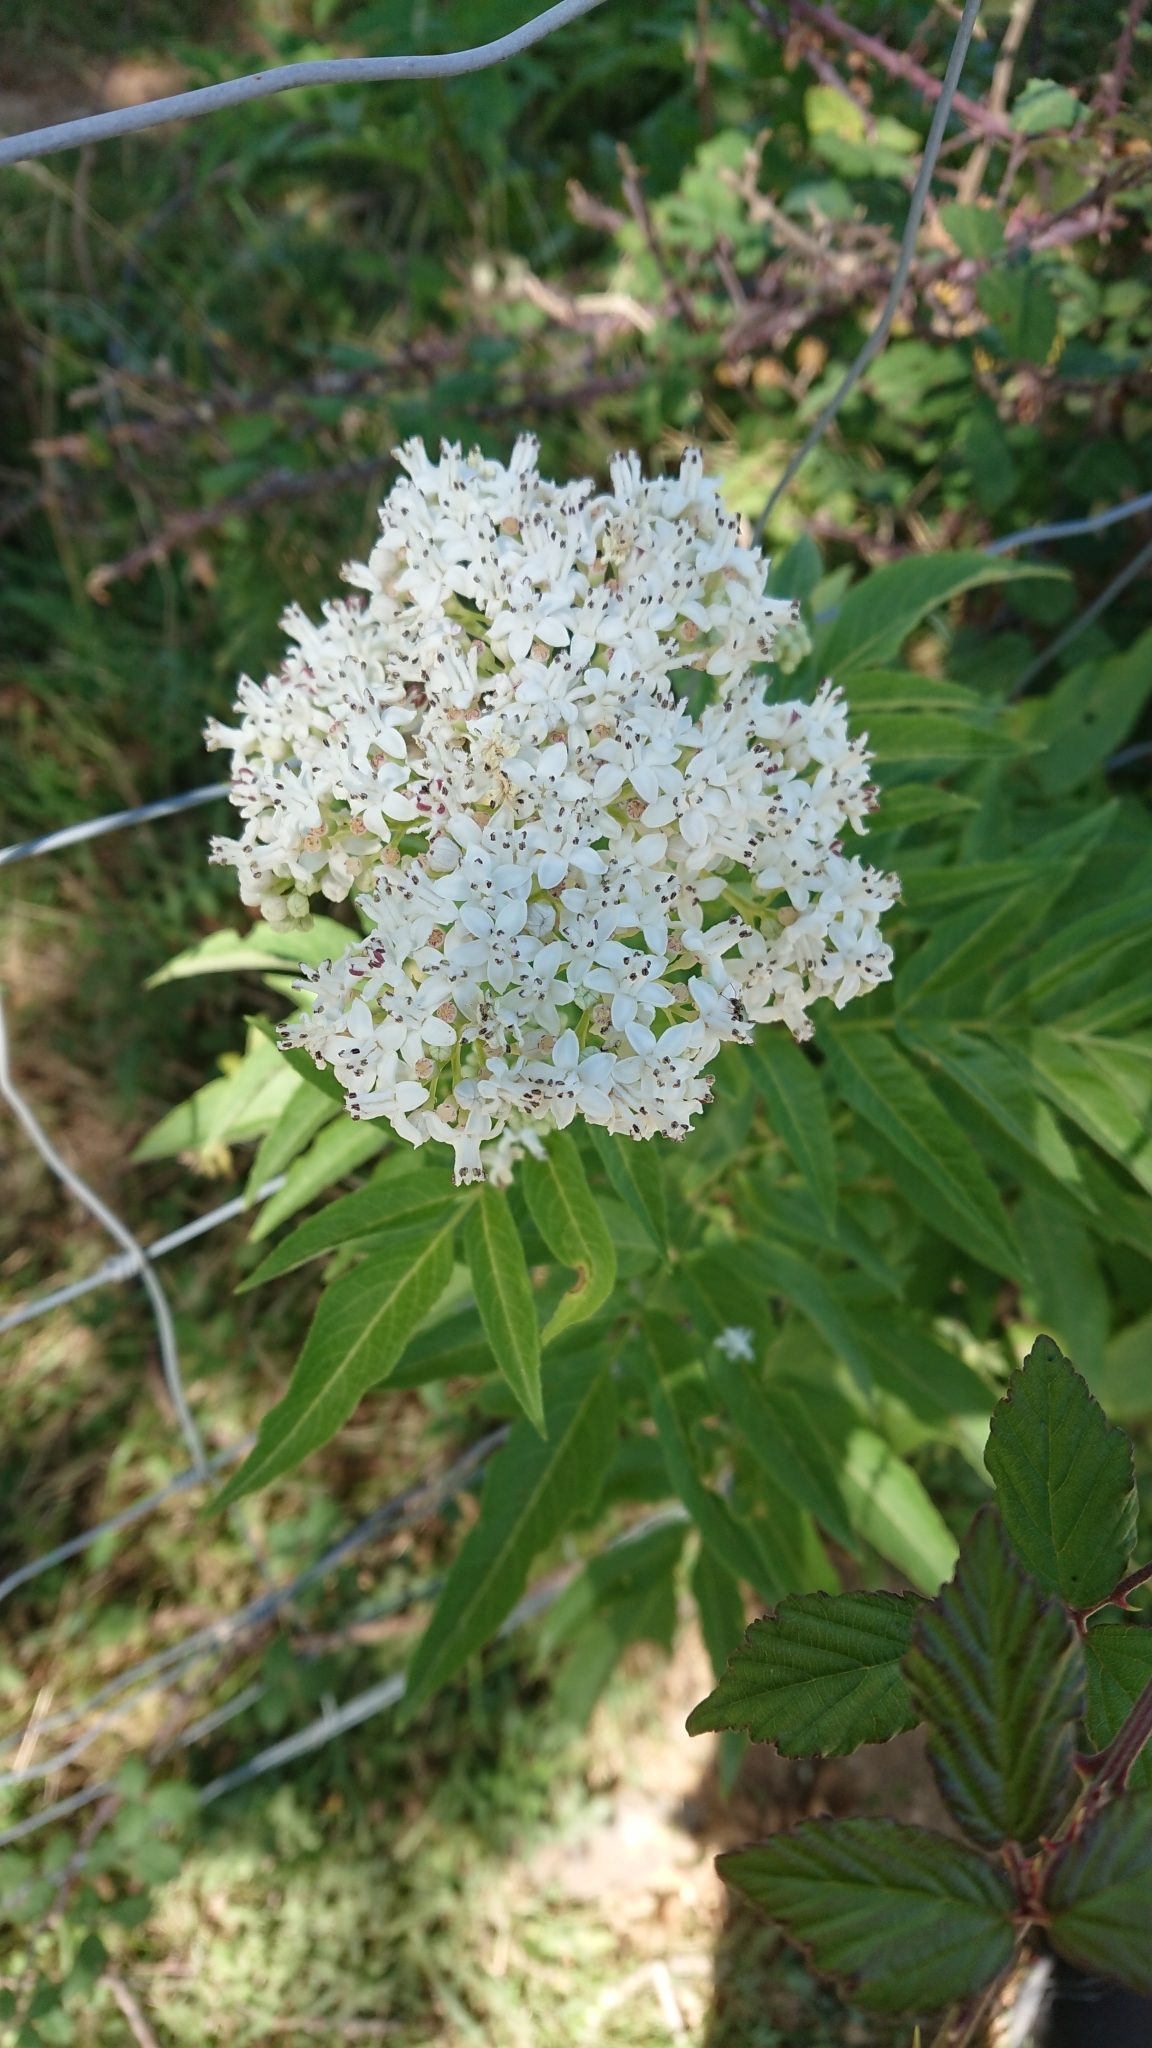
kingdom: Plantae
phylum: Tracheophyta
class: Magnoliopsida
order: Dipsacales
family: Caprifoliaceae
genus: Valeriana
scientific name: Valeriana officinalis
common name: Common valerian
